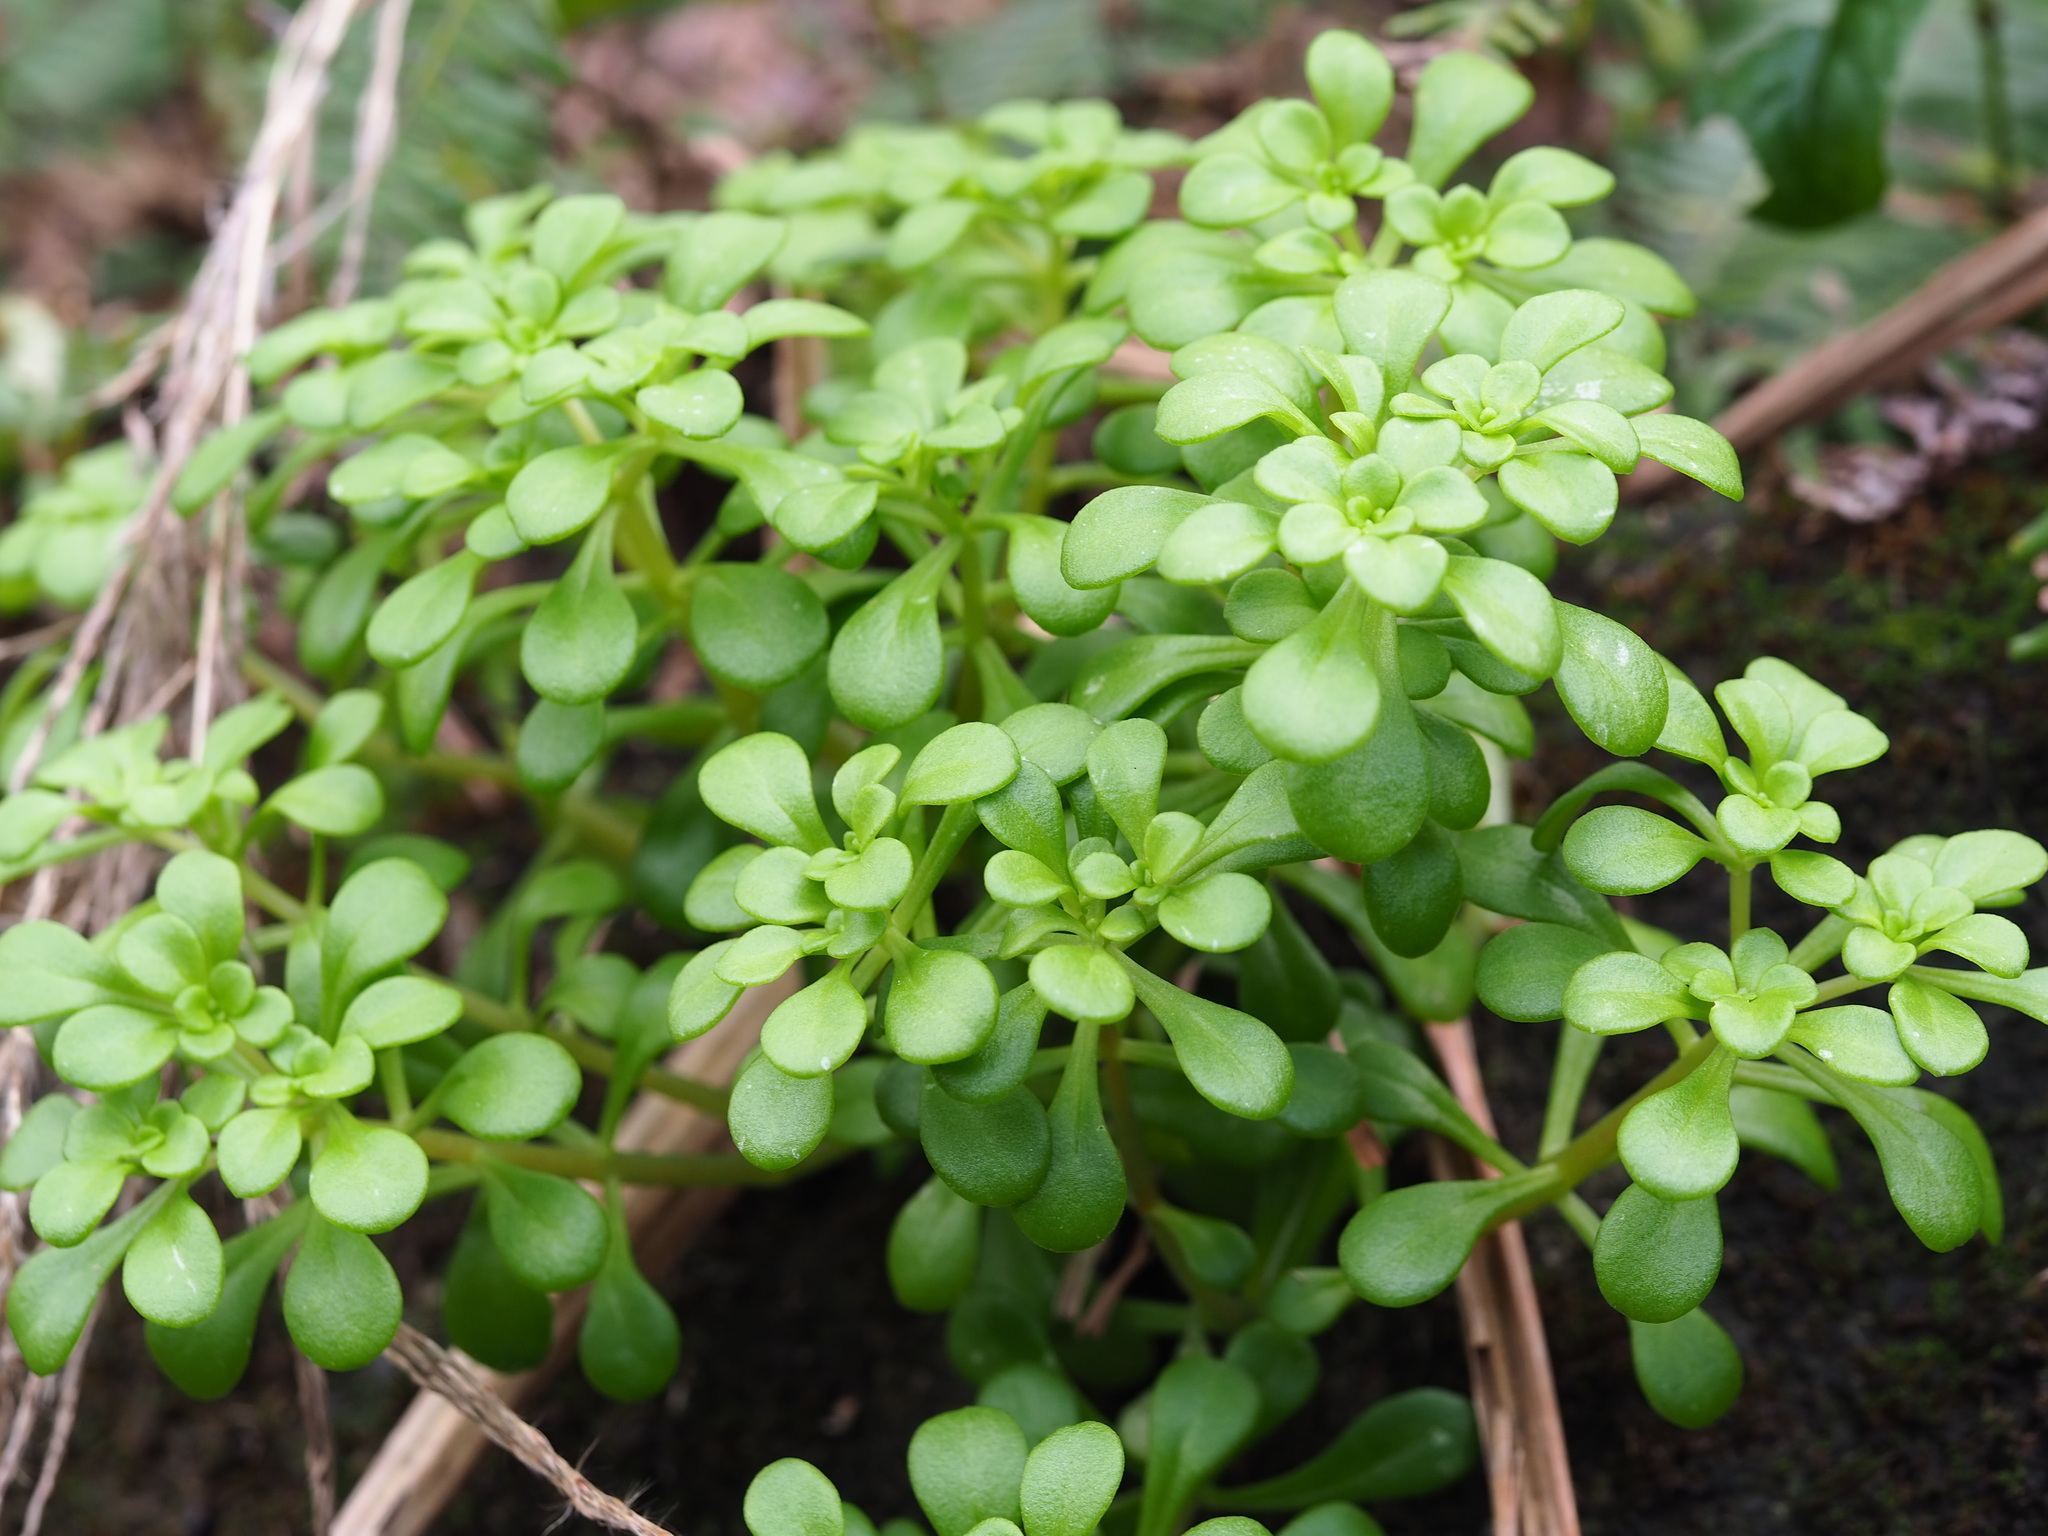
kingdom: Plantae
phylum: Tracheophyta
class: Magnoliopsida
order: Saxifragales
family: Crassulaceae
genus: Sedum
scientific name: Sedum formosanum
